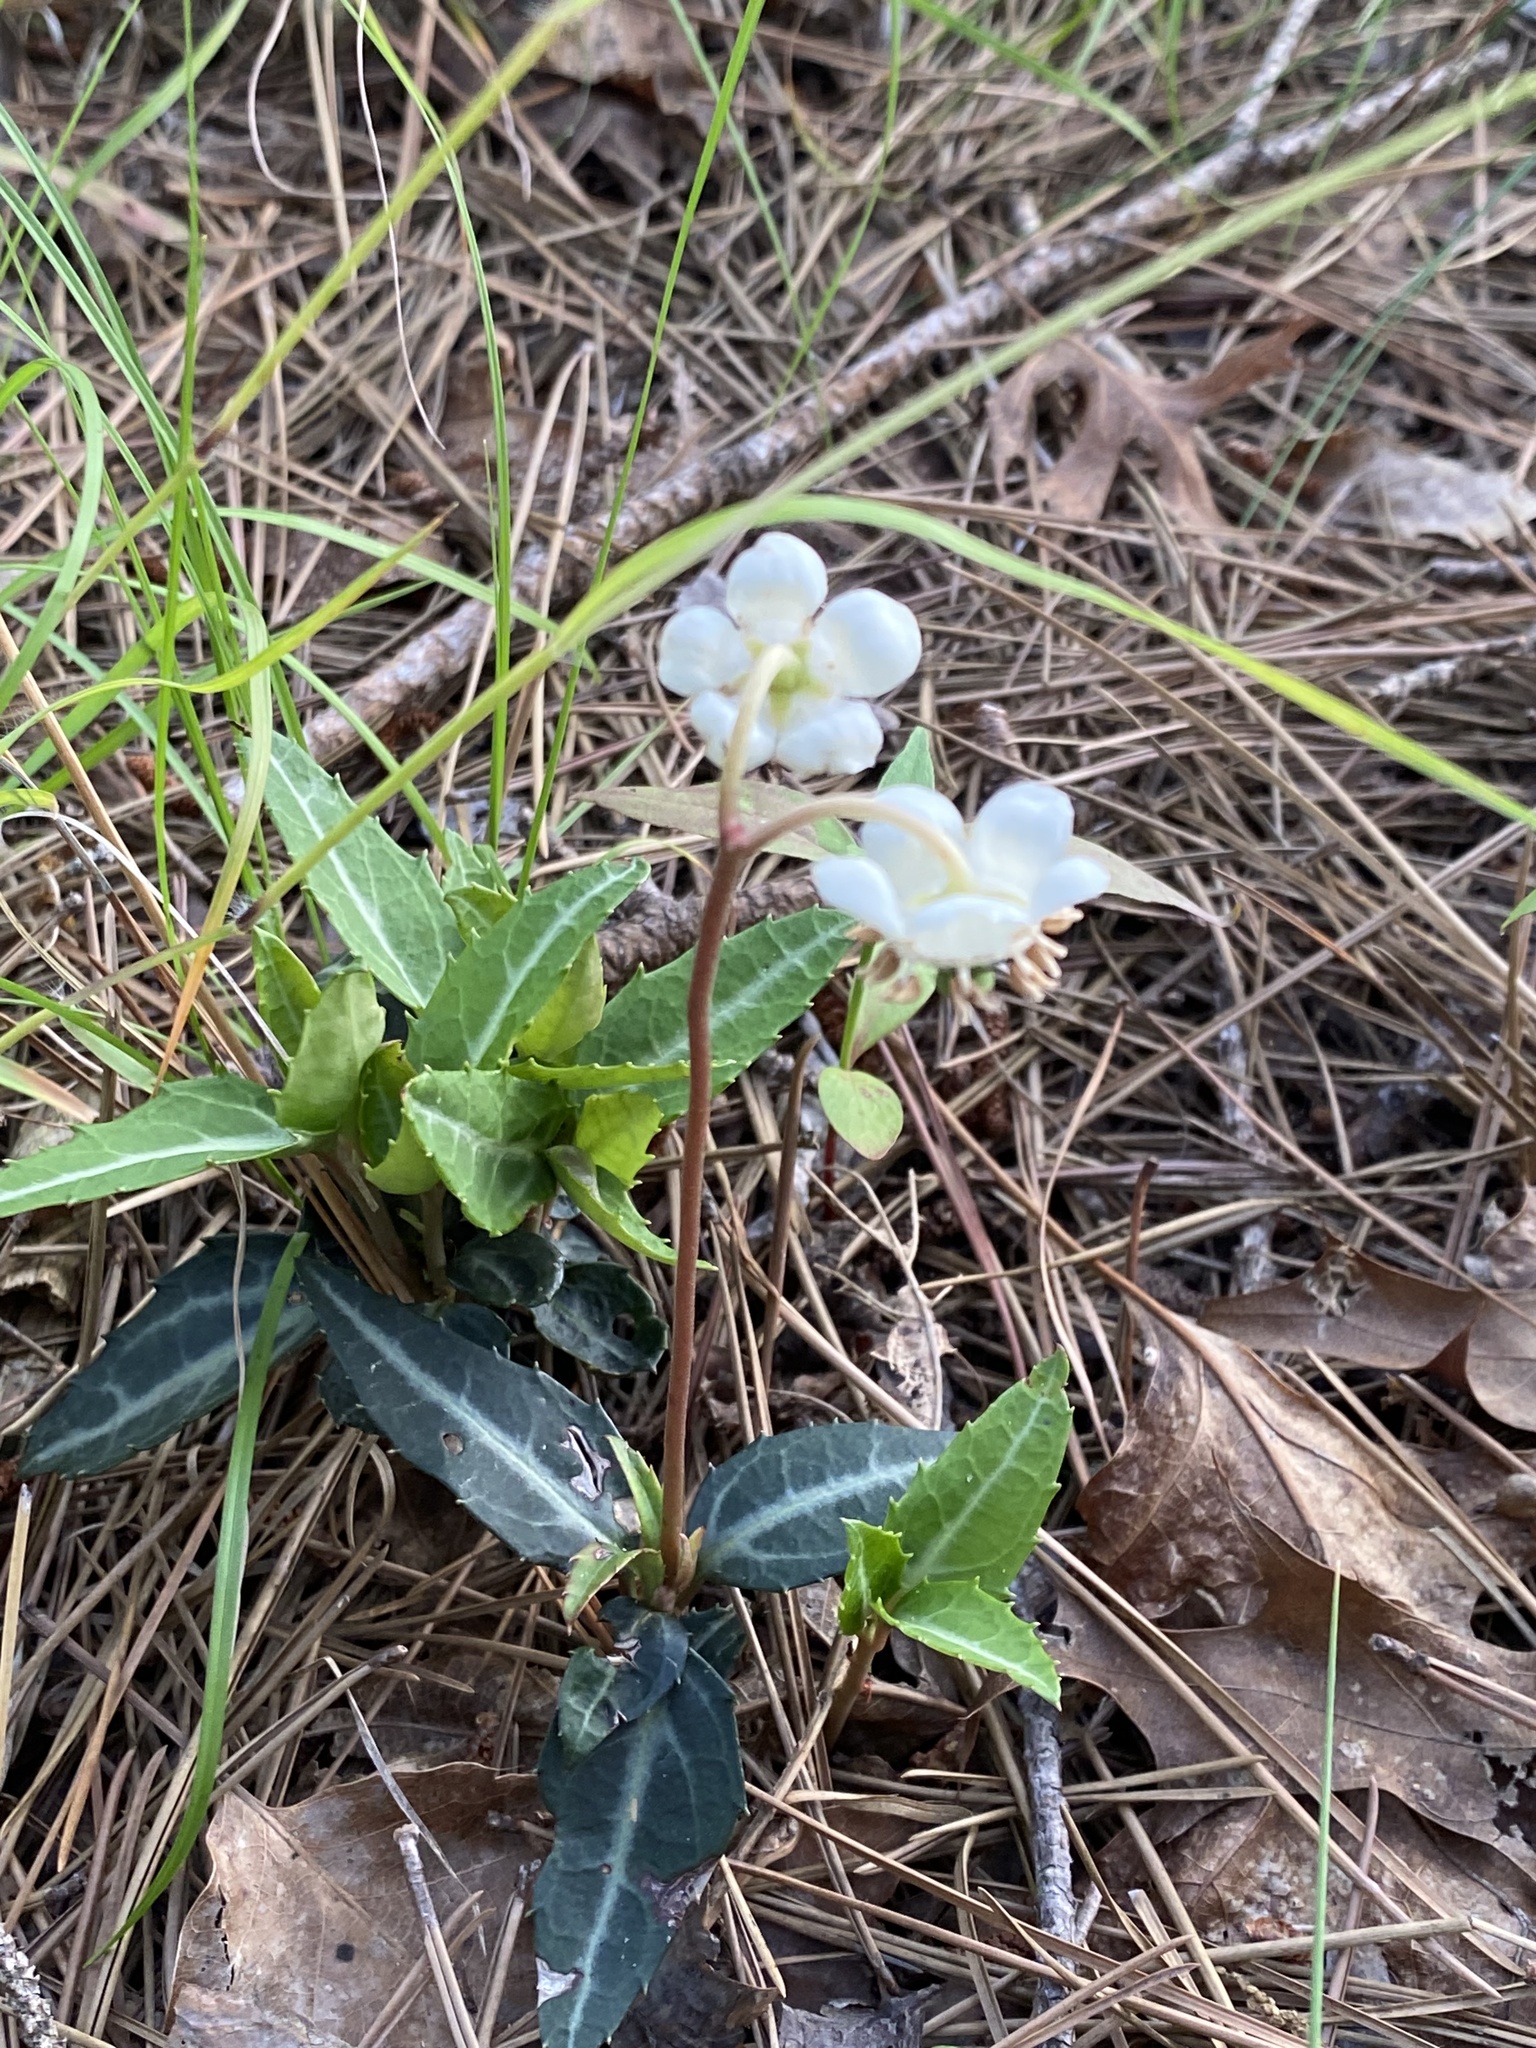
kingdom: Plantae
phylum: Tracheophyta
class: Magnoliopsida
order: Ericales
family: Ericaceae
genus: Chimaphila
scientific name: Chimaphila maculata
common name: Spotted pipsissewa
